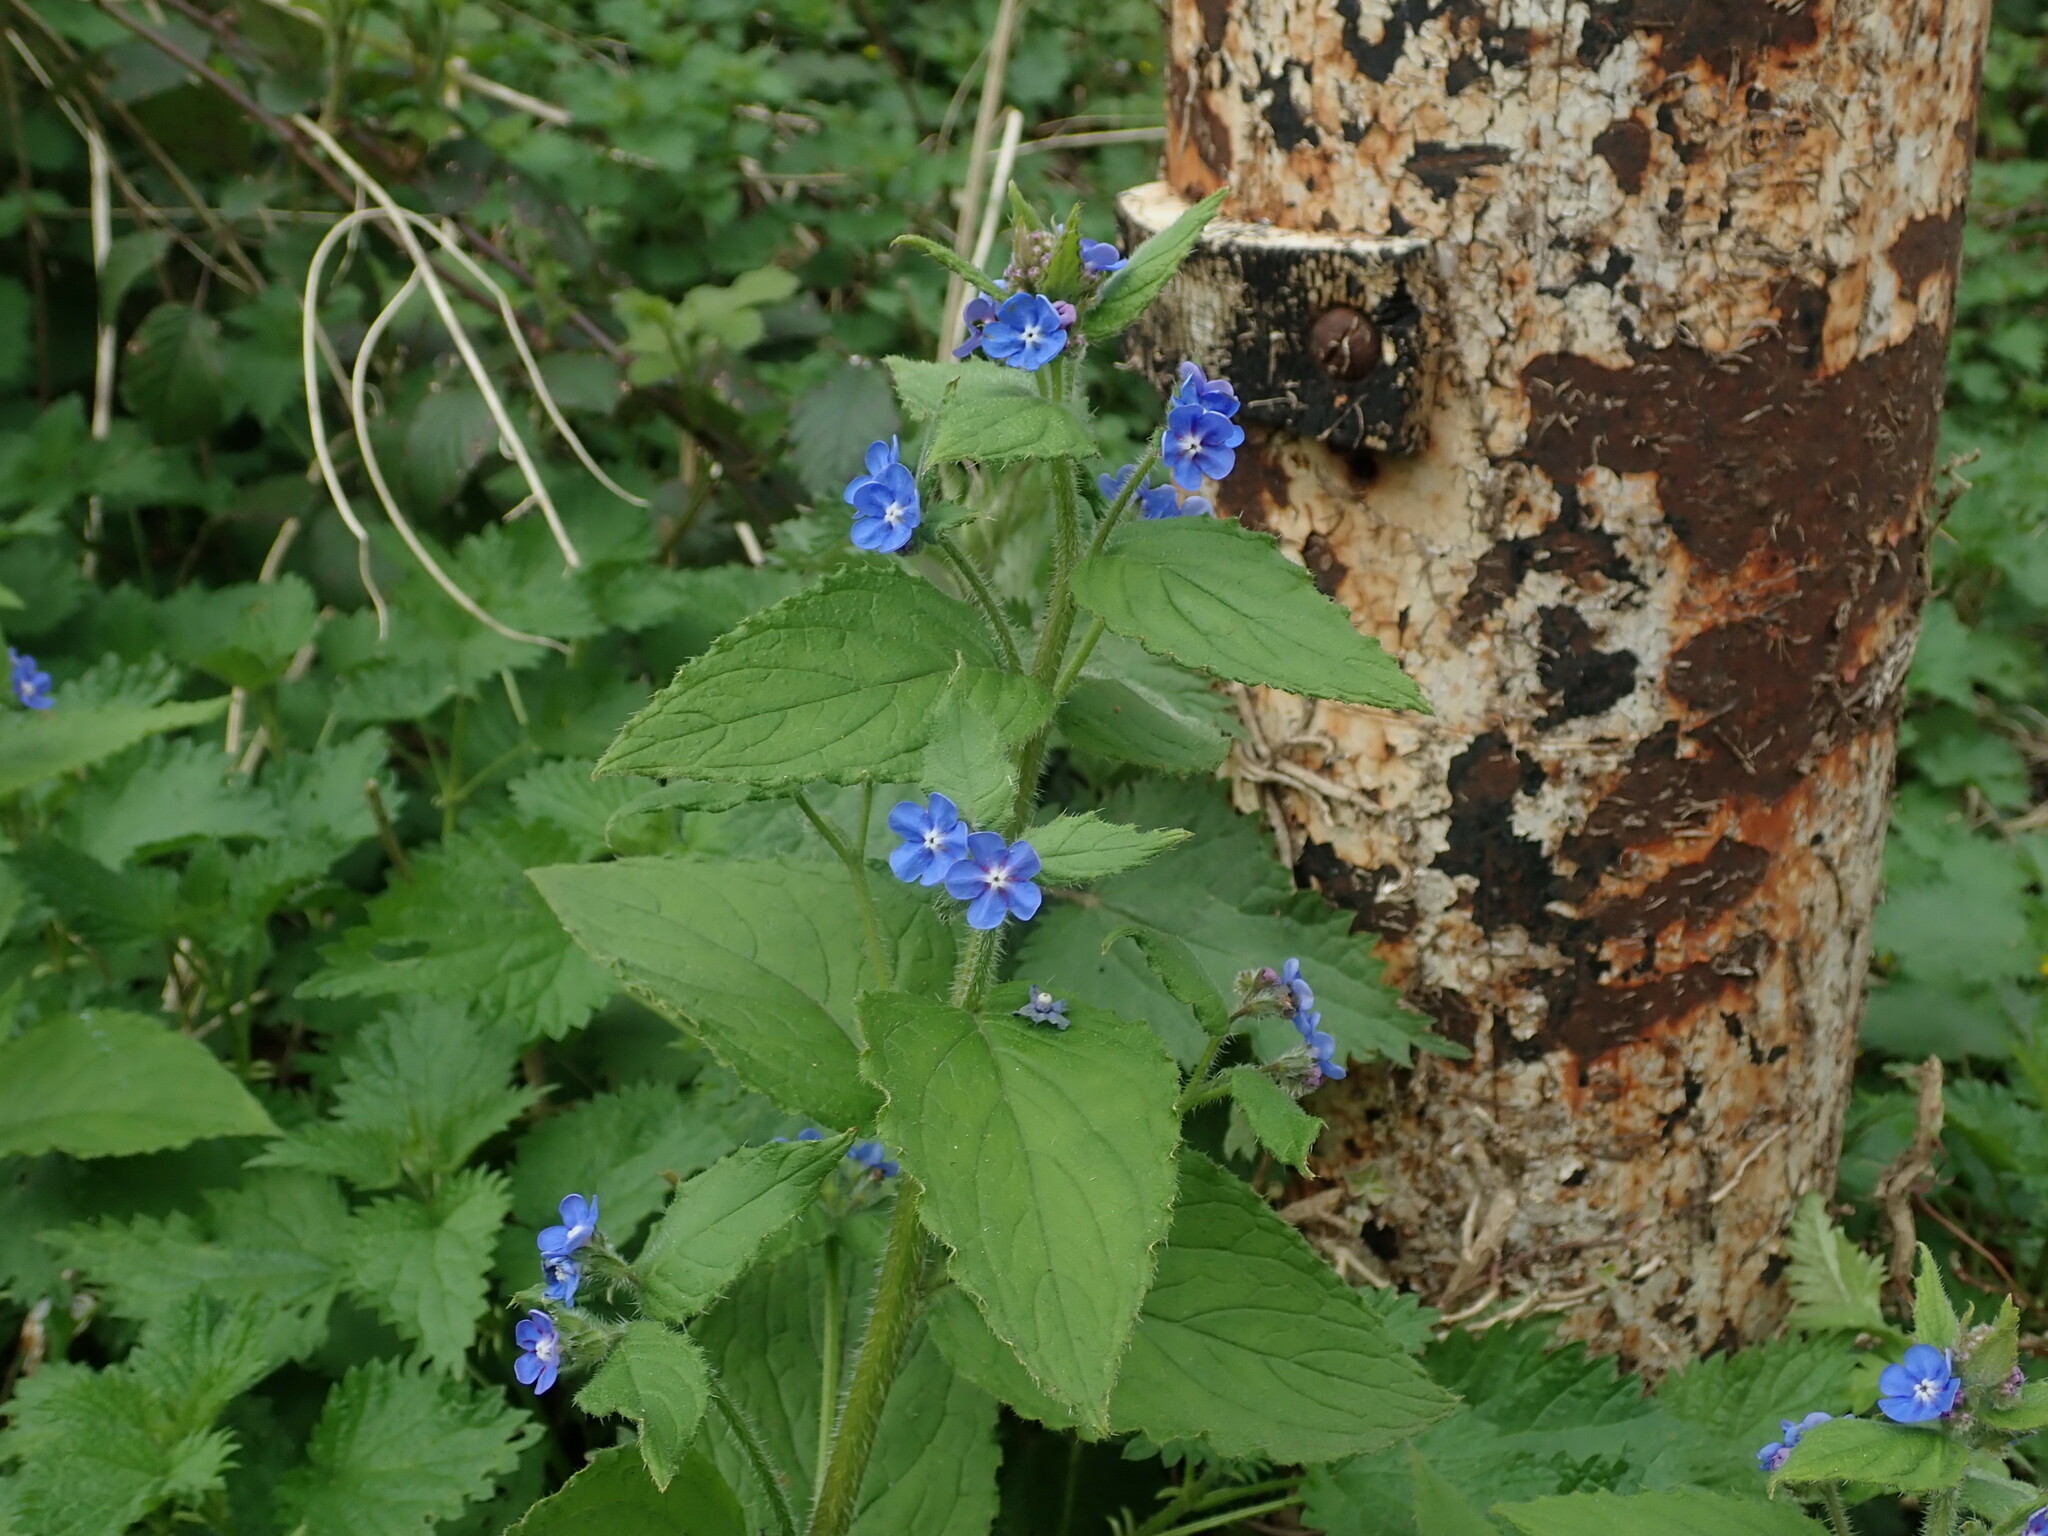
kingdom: Plantae
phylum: Tracheophyta
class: Magnoliopsida
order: Boraginales
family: Boraginaceae
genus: Pentaglottis
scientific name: Pentaglottis sempervirens
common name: Green alkanet
